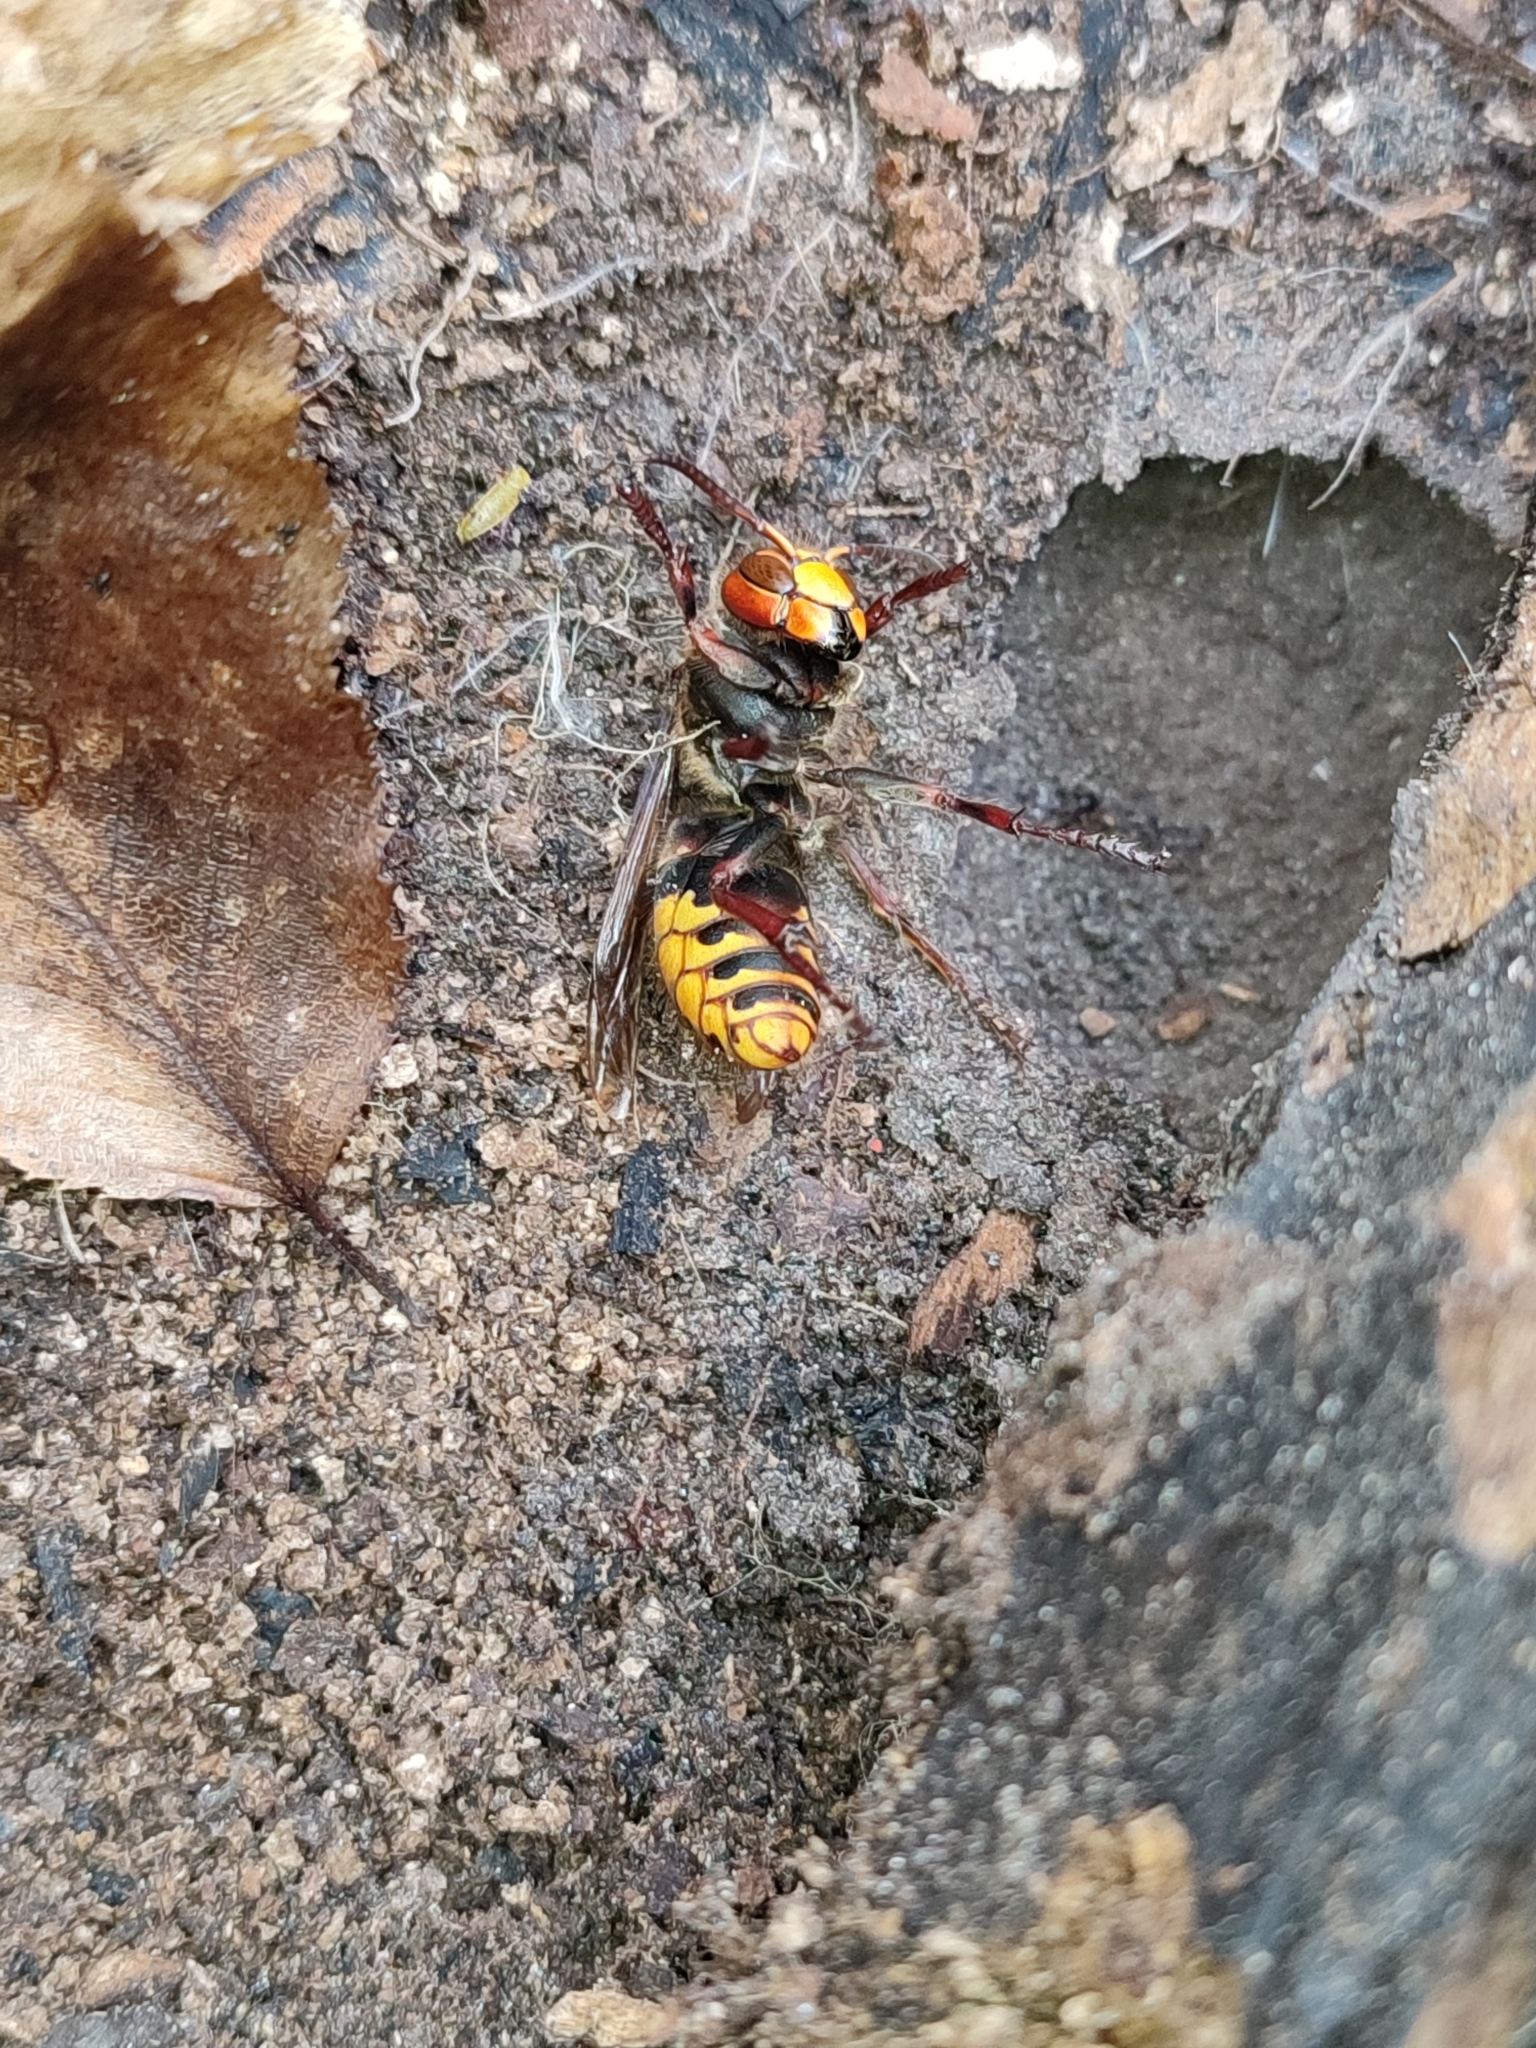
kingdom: Animalia
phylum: Arthropoda
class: Insecta
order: Hymenoptera
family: Vespidae
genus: Vespa
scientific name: Vespa crabro
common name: Hornet
